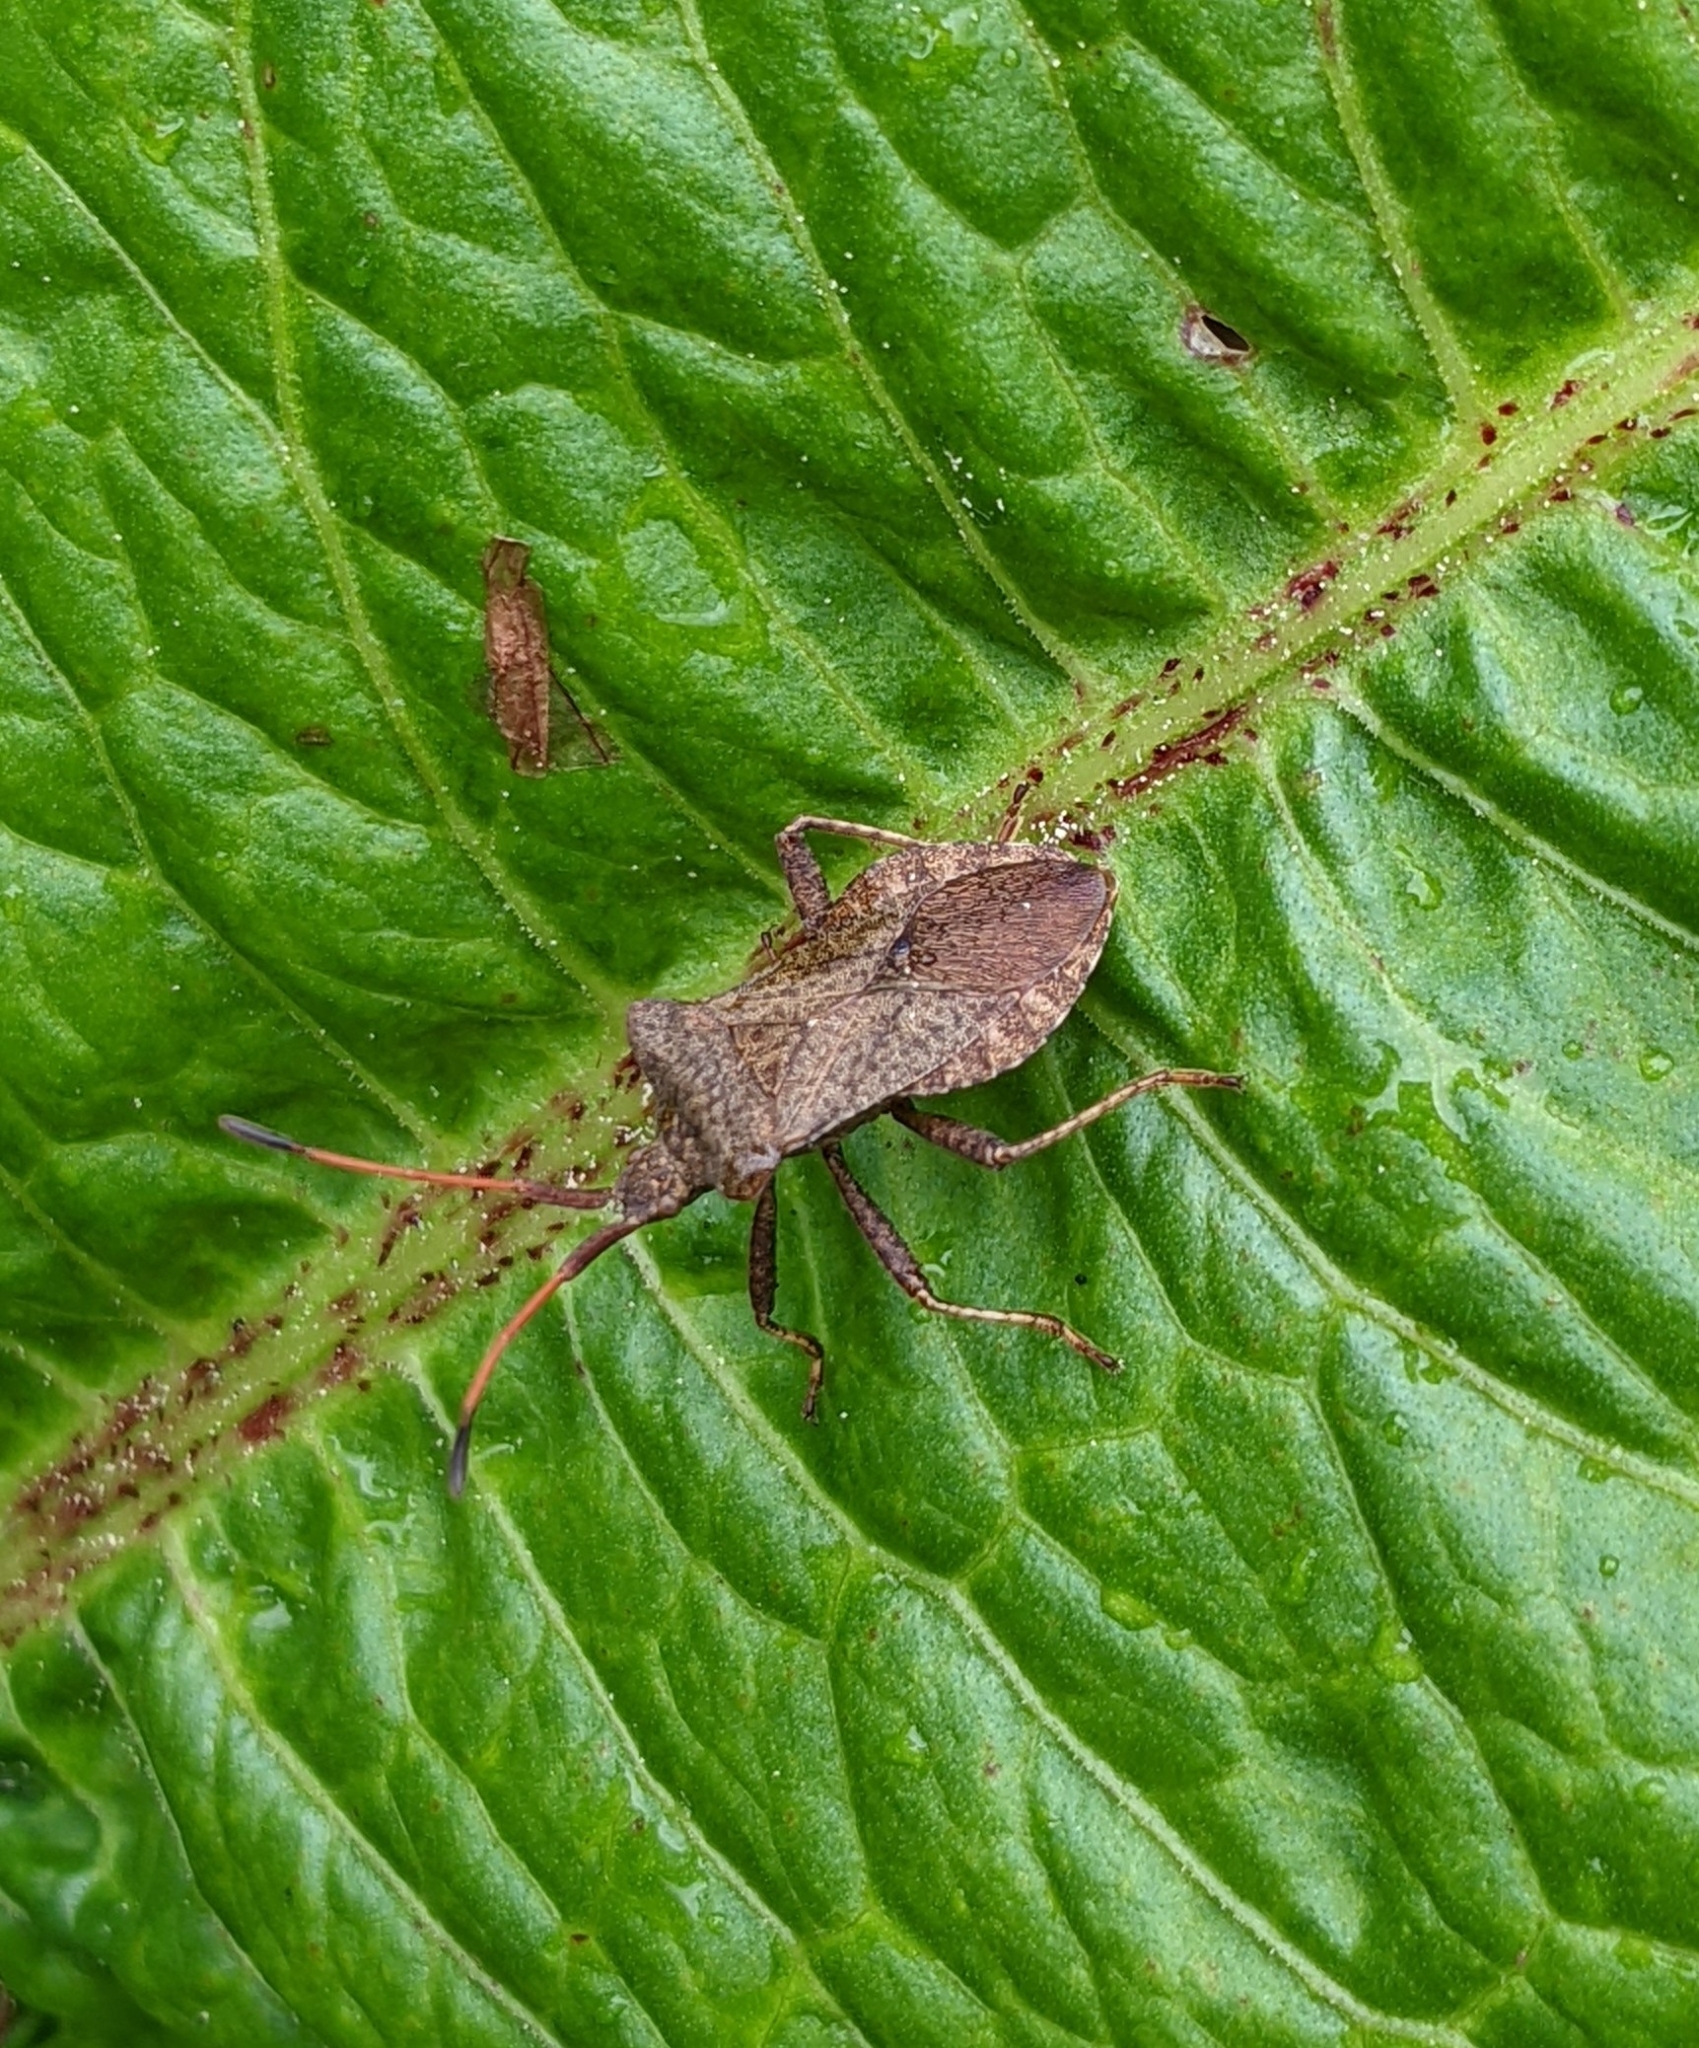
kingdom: Animalia
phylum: Arthropoda
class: Insecta
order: Hemiptera
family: Coreidae
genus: Coreus
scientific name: Coreus marginatus
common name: Dock bug
